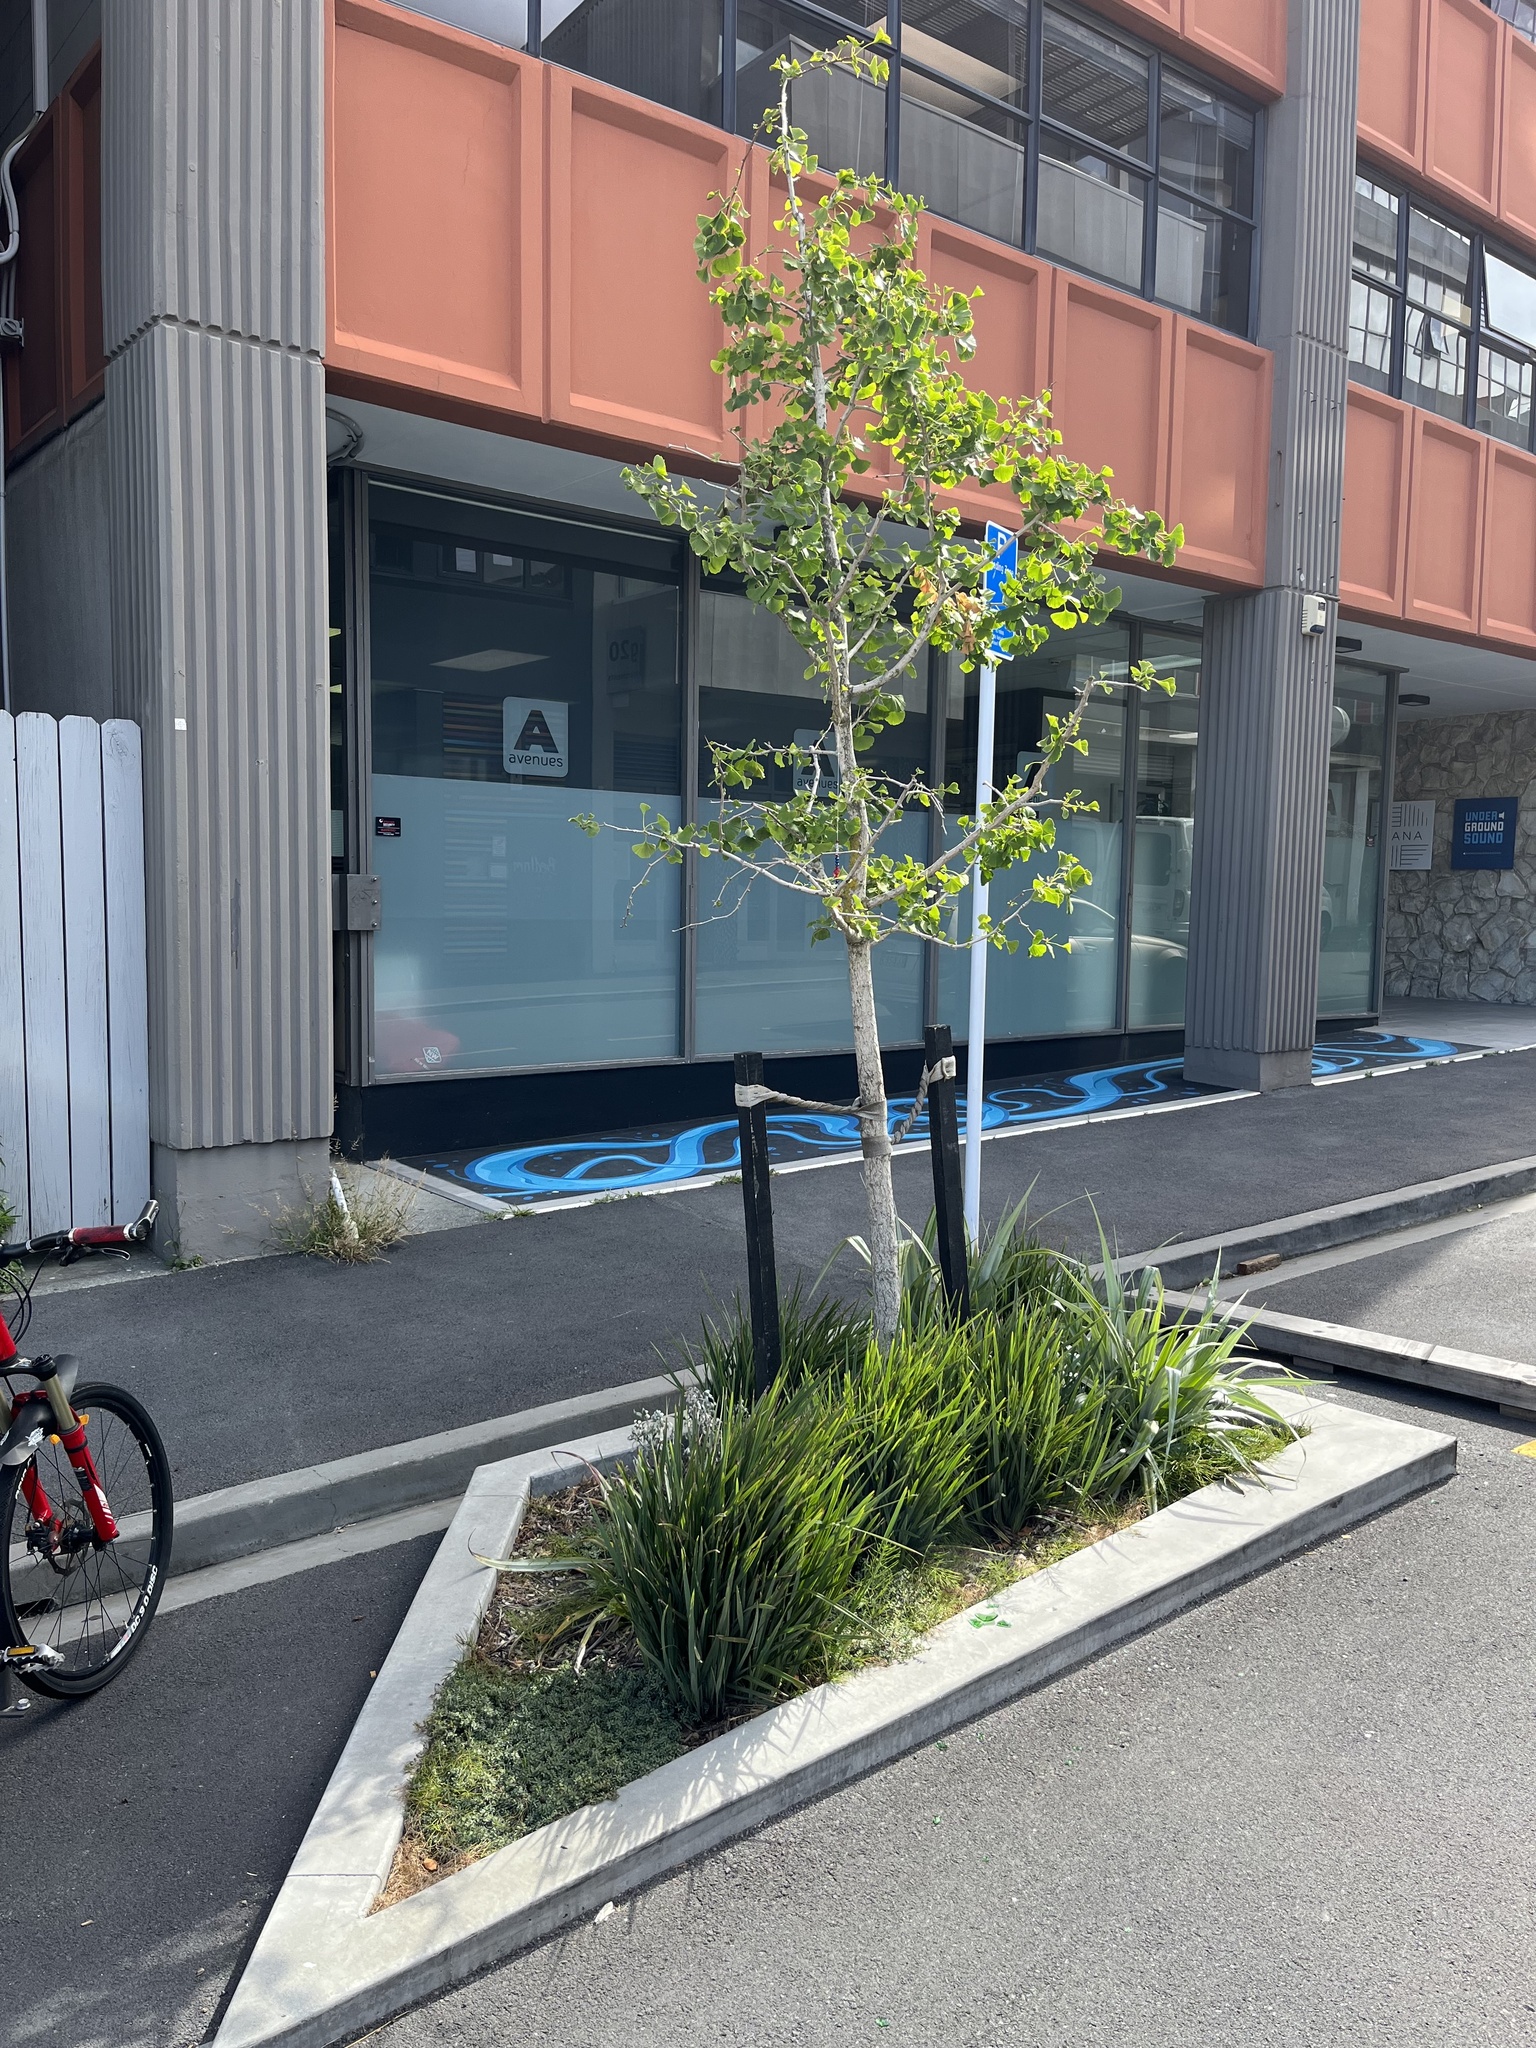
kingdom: Plantae
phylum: Tracheophyta
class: Polypodiopsida
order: Equisetales
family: Equisetaceae
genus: Equisetum
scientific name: Equisetum arvense
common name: Field horsetail
